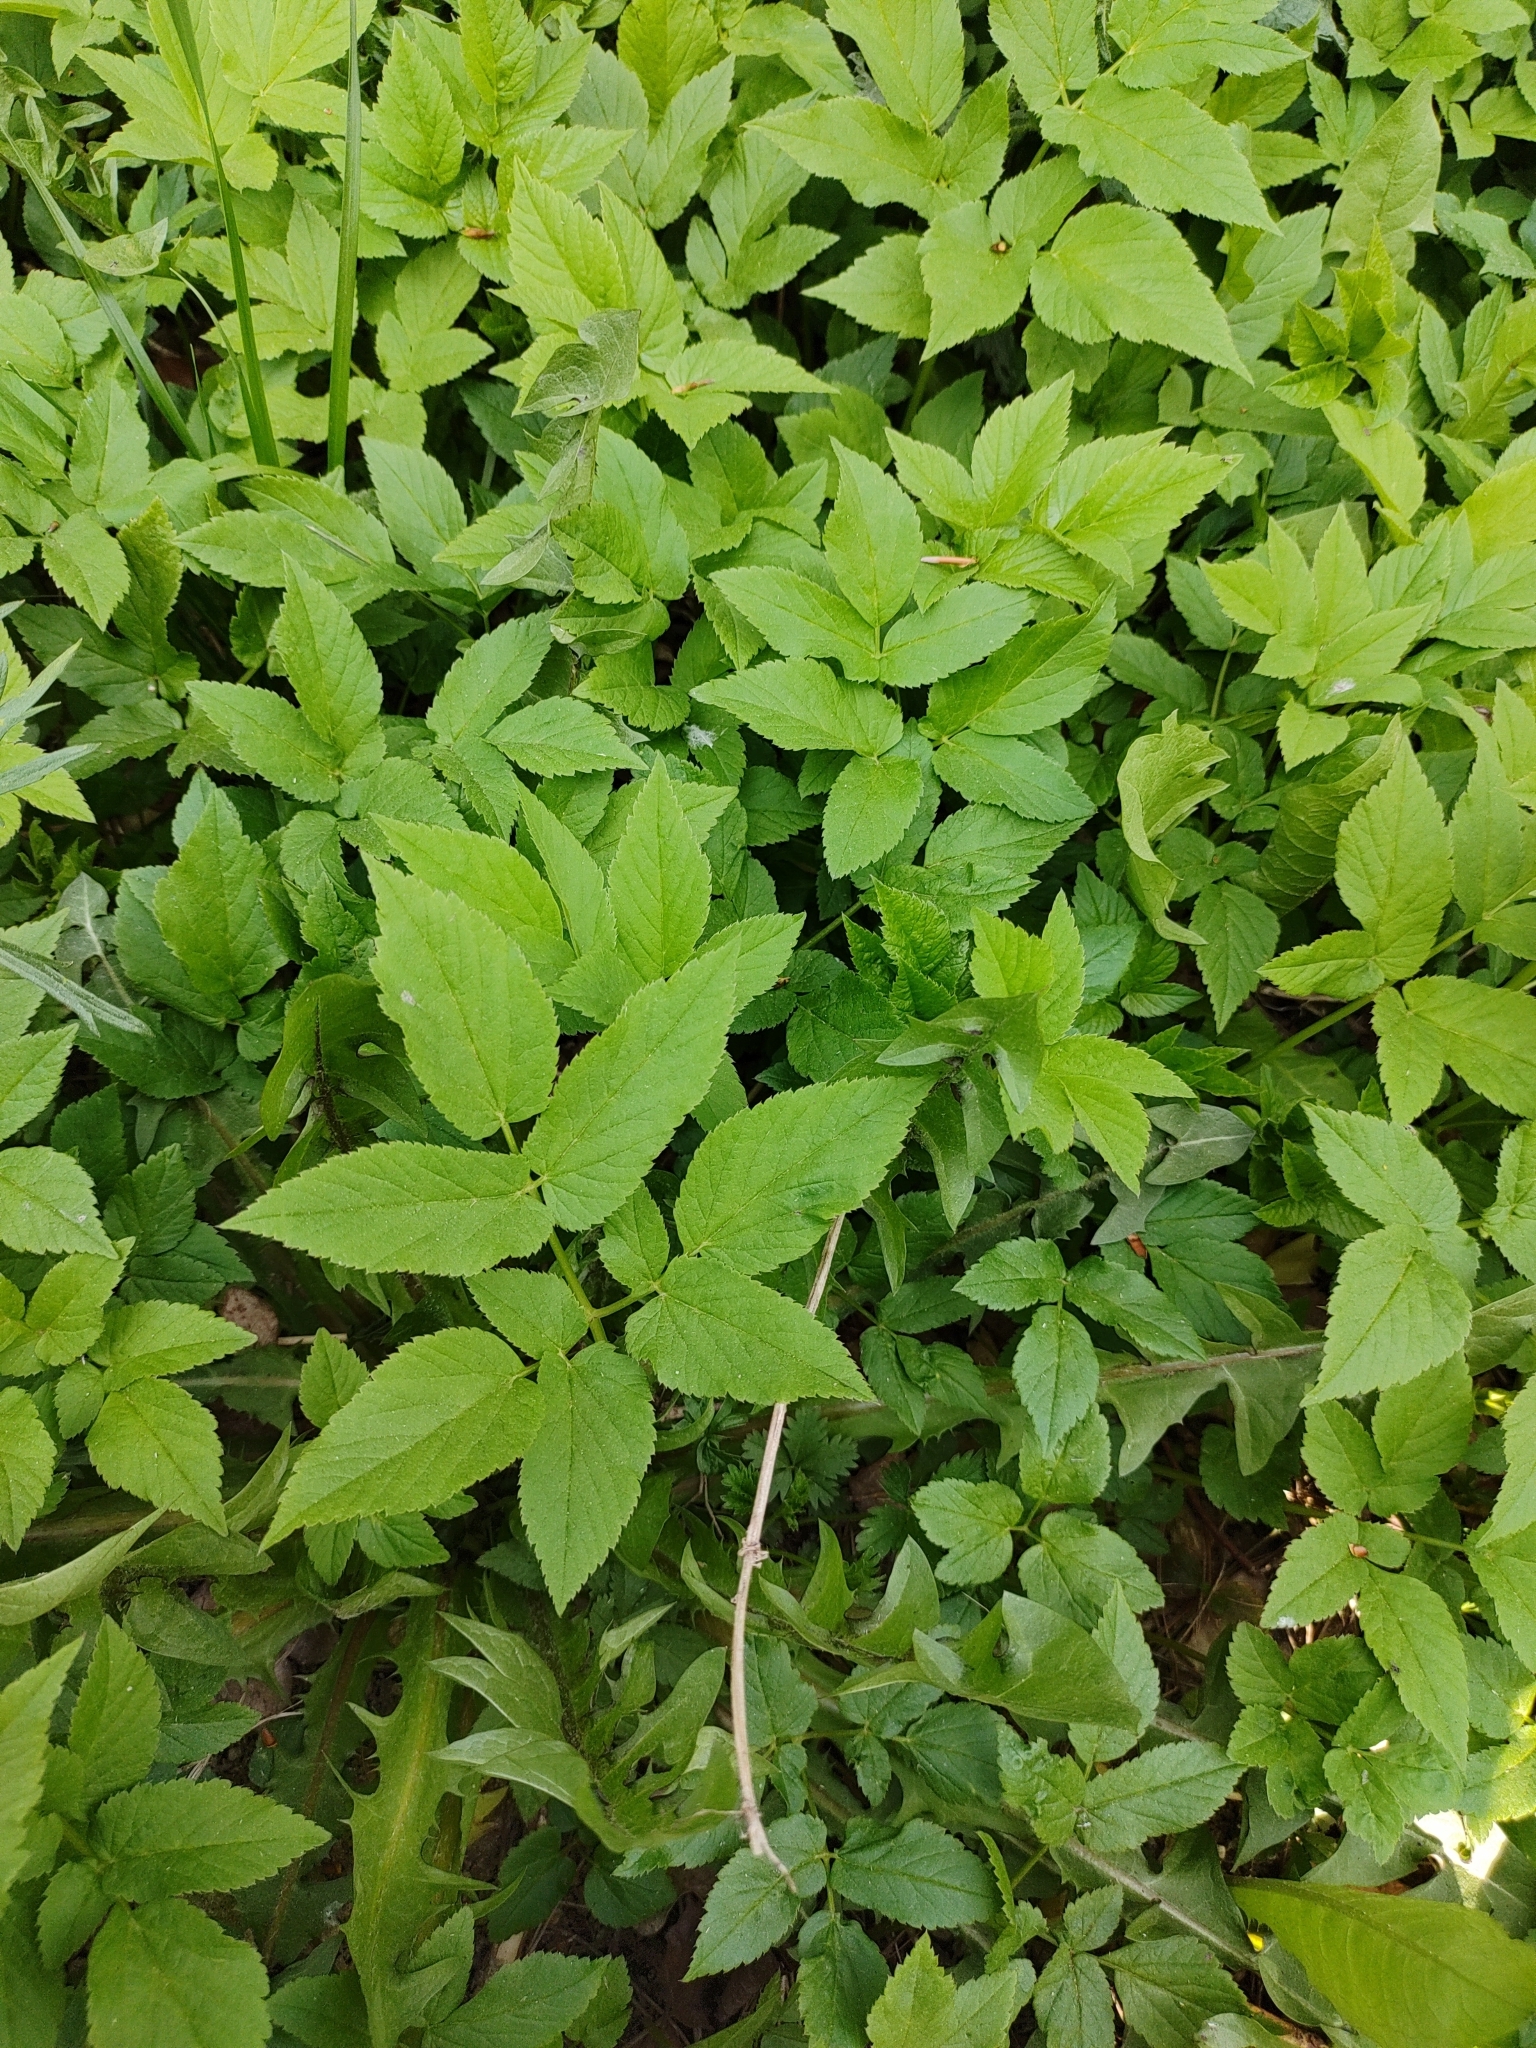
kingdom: Plantae
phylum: Tracheophyta
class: Magnoliopsida
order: Apiales
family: Apiaceae
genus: Aegopodium
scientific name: Aegopodium podagraria
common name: Ground-elder
